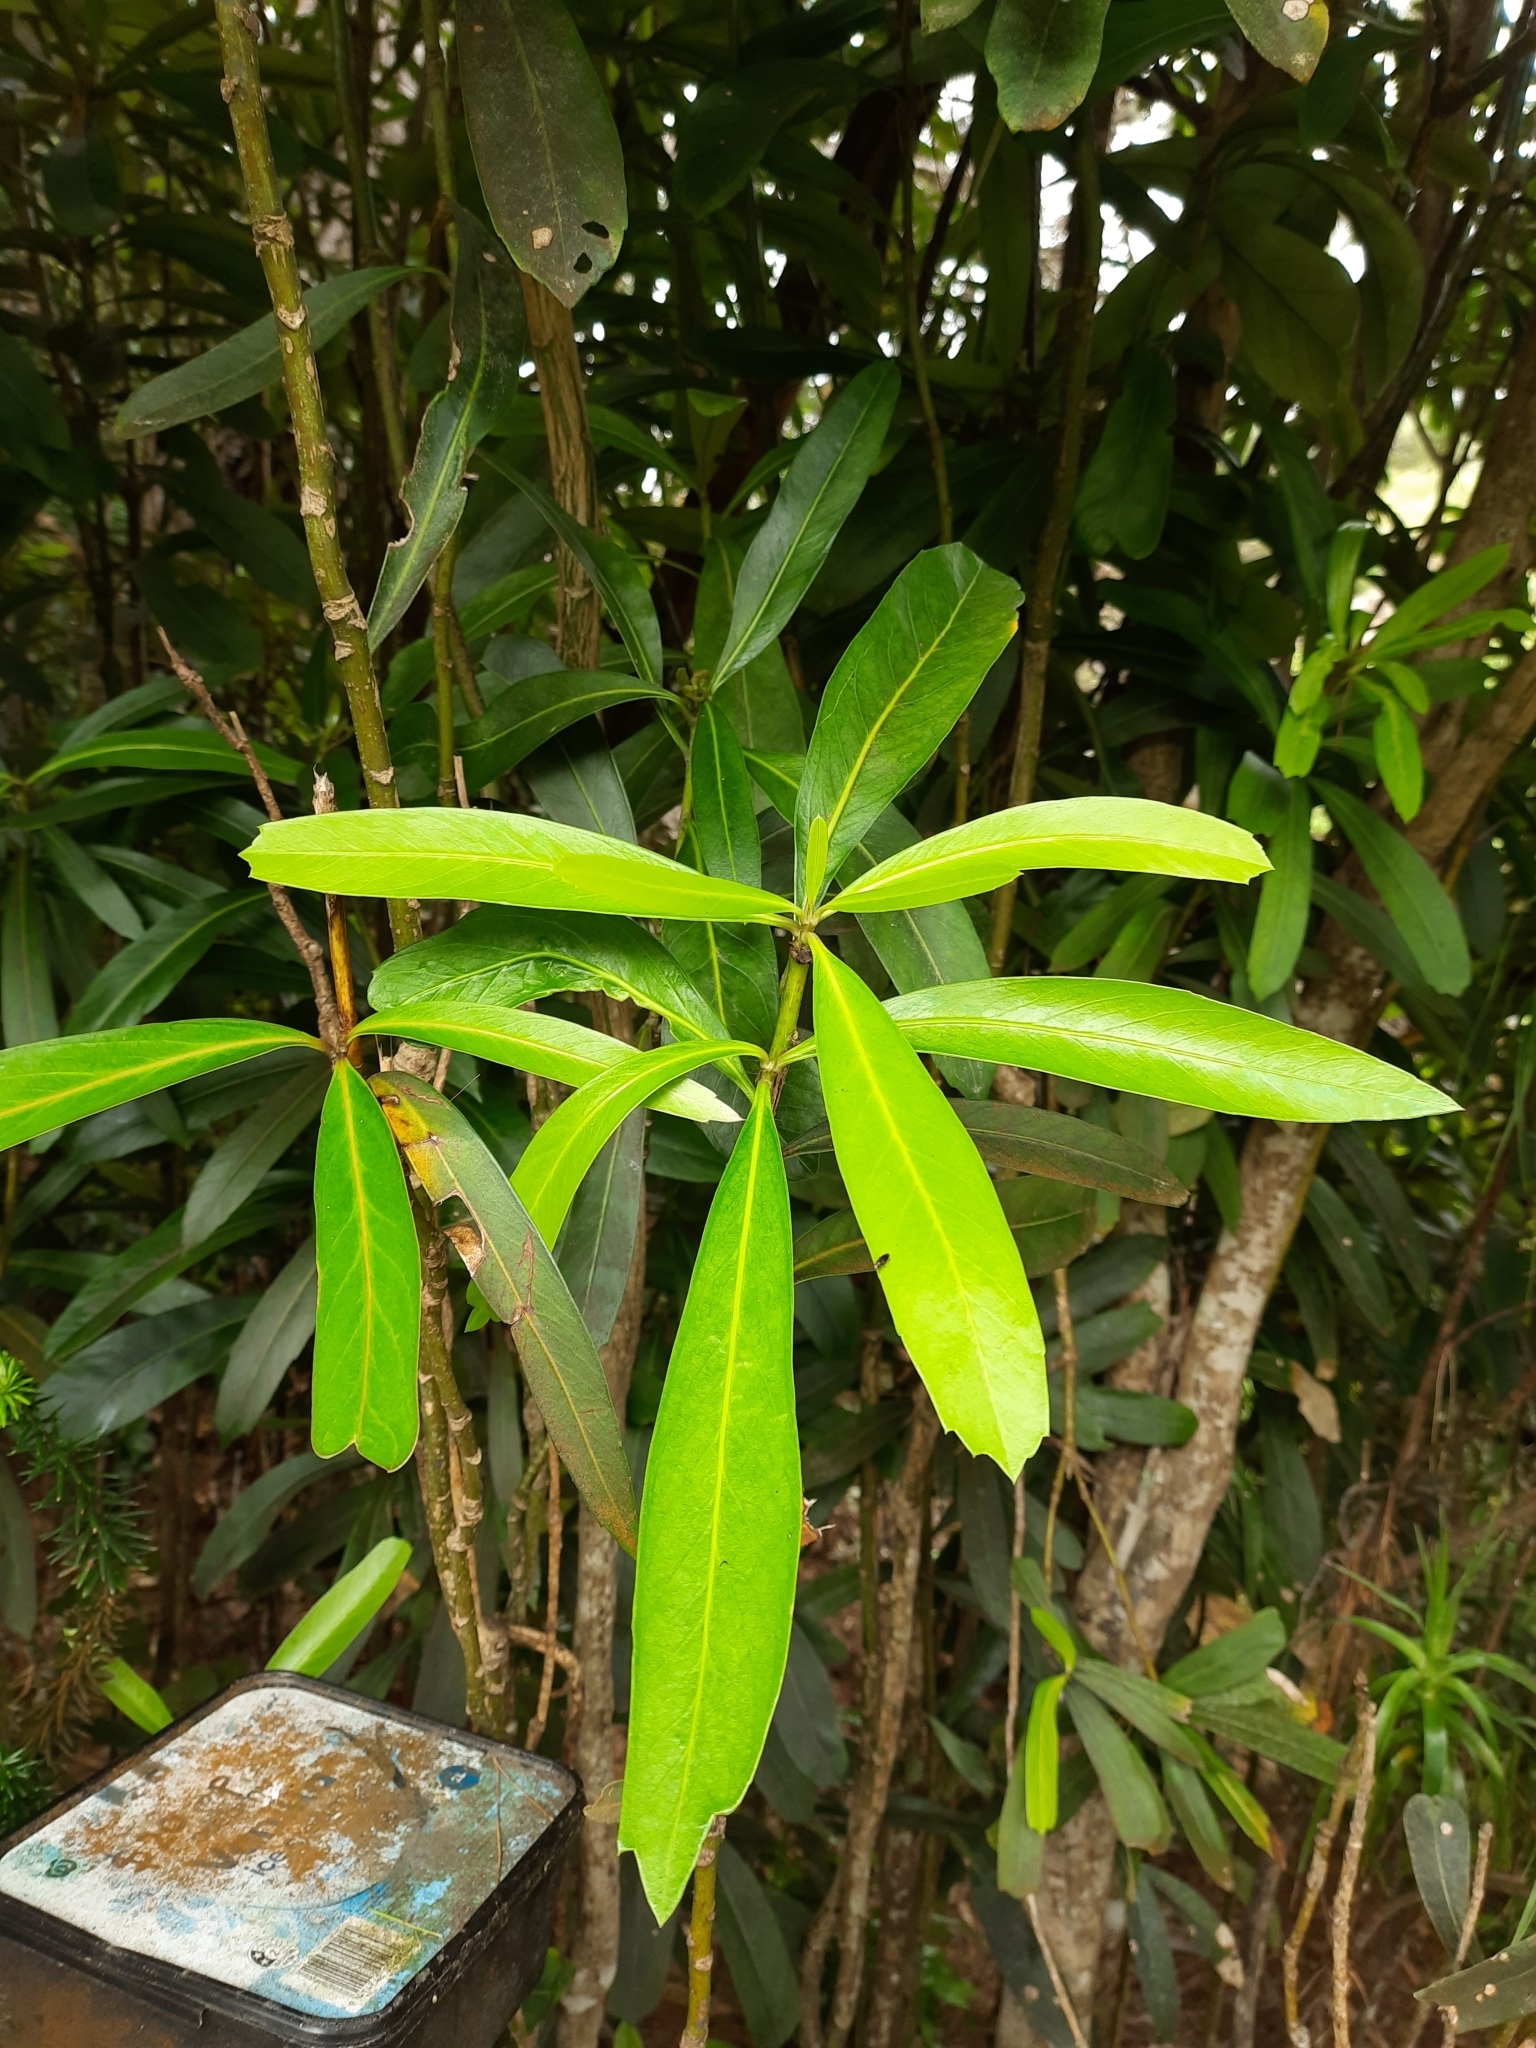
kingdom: Plantae
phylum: Tracheophyta
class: Magnoliopsida
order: Apiales
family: Araliaceae
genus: Pseudopanax
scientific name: Pseudopanax chathamicus
